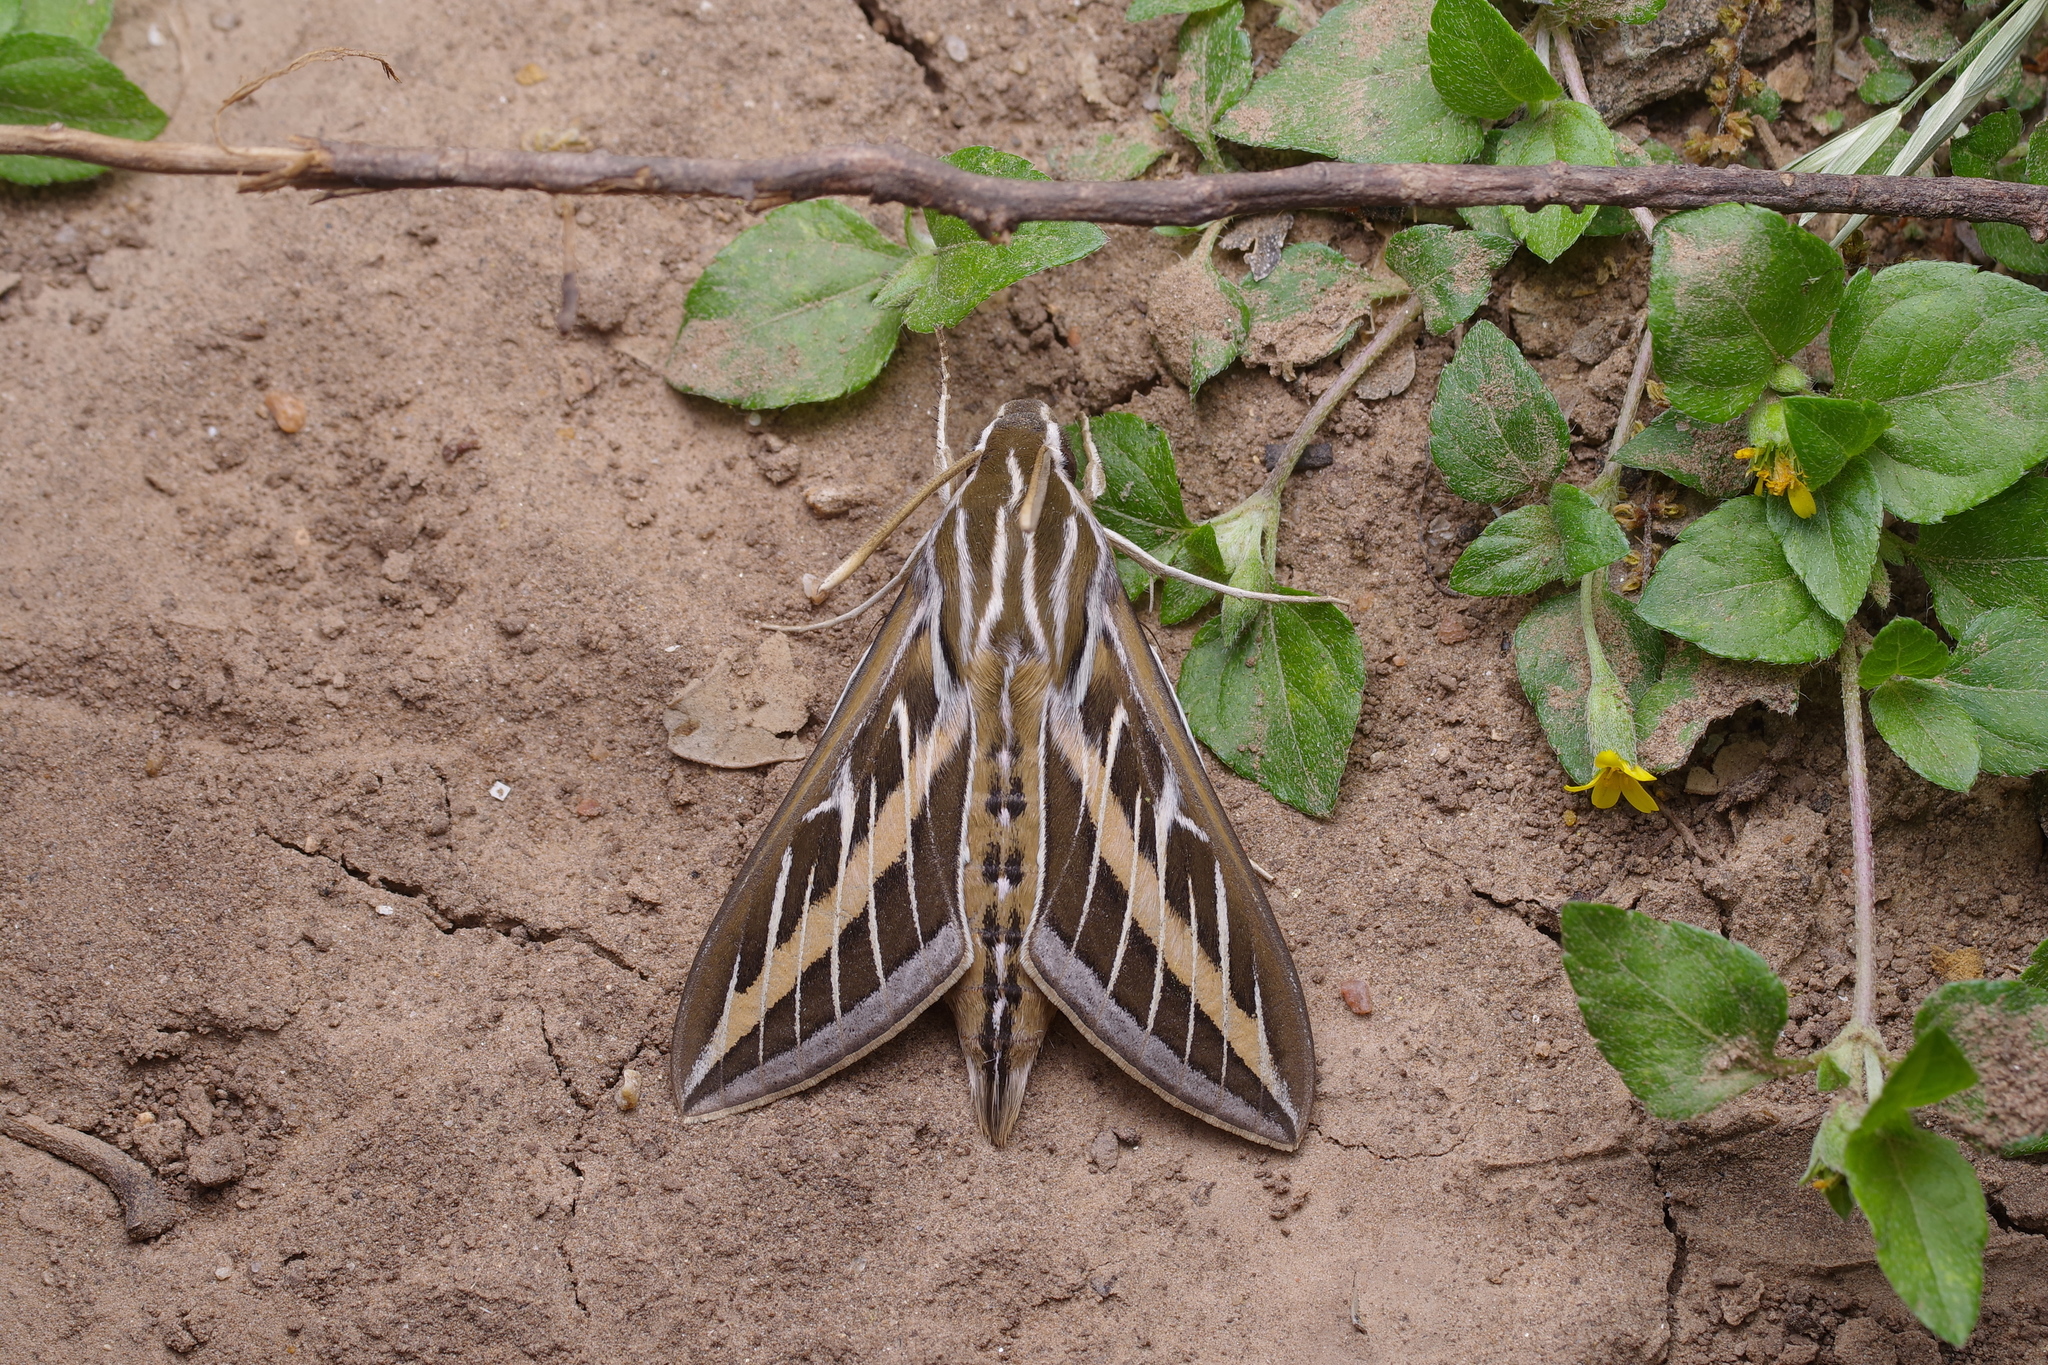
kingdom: Animalia
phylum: Arthropoda
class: Insecta
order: Lepidoptera
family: Sphingidae
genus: Hyles
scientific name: Hyles lineata
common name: White-lined sphinx
